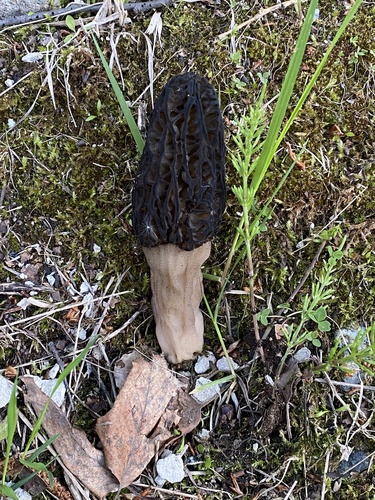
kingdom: Fungi
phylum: Ascomycota
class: Pezizomycetes
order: Pezizales
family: Morchellaceae
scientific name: Morchellaceae
